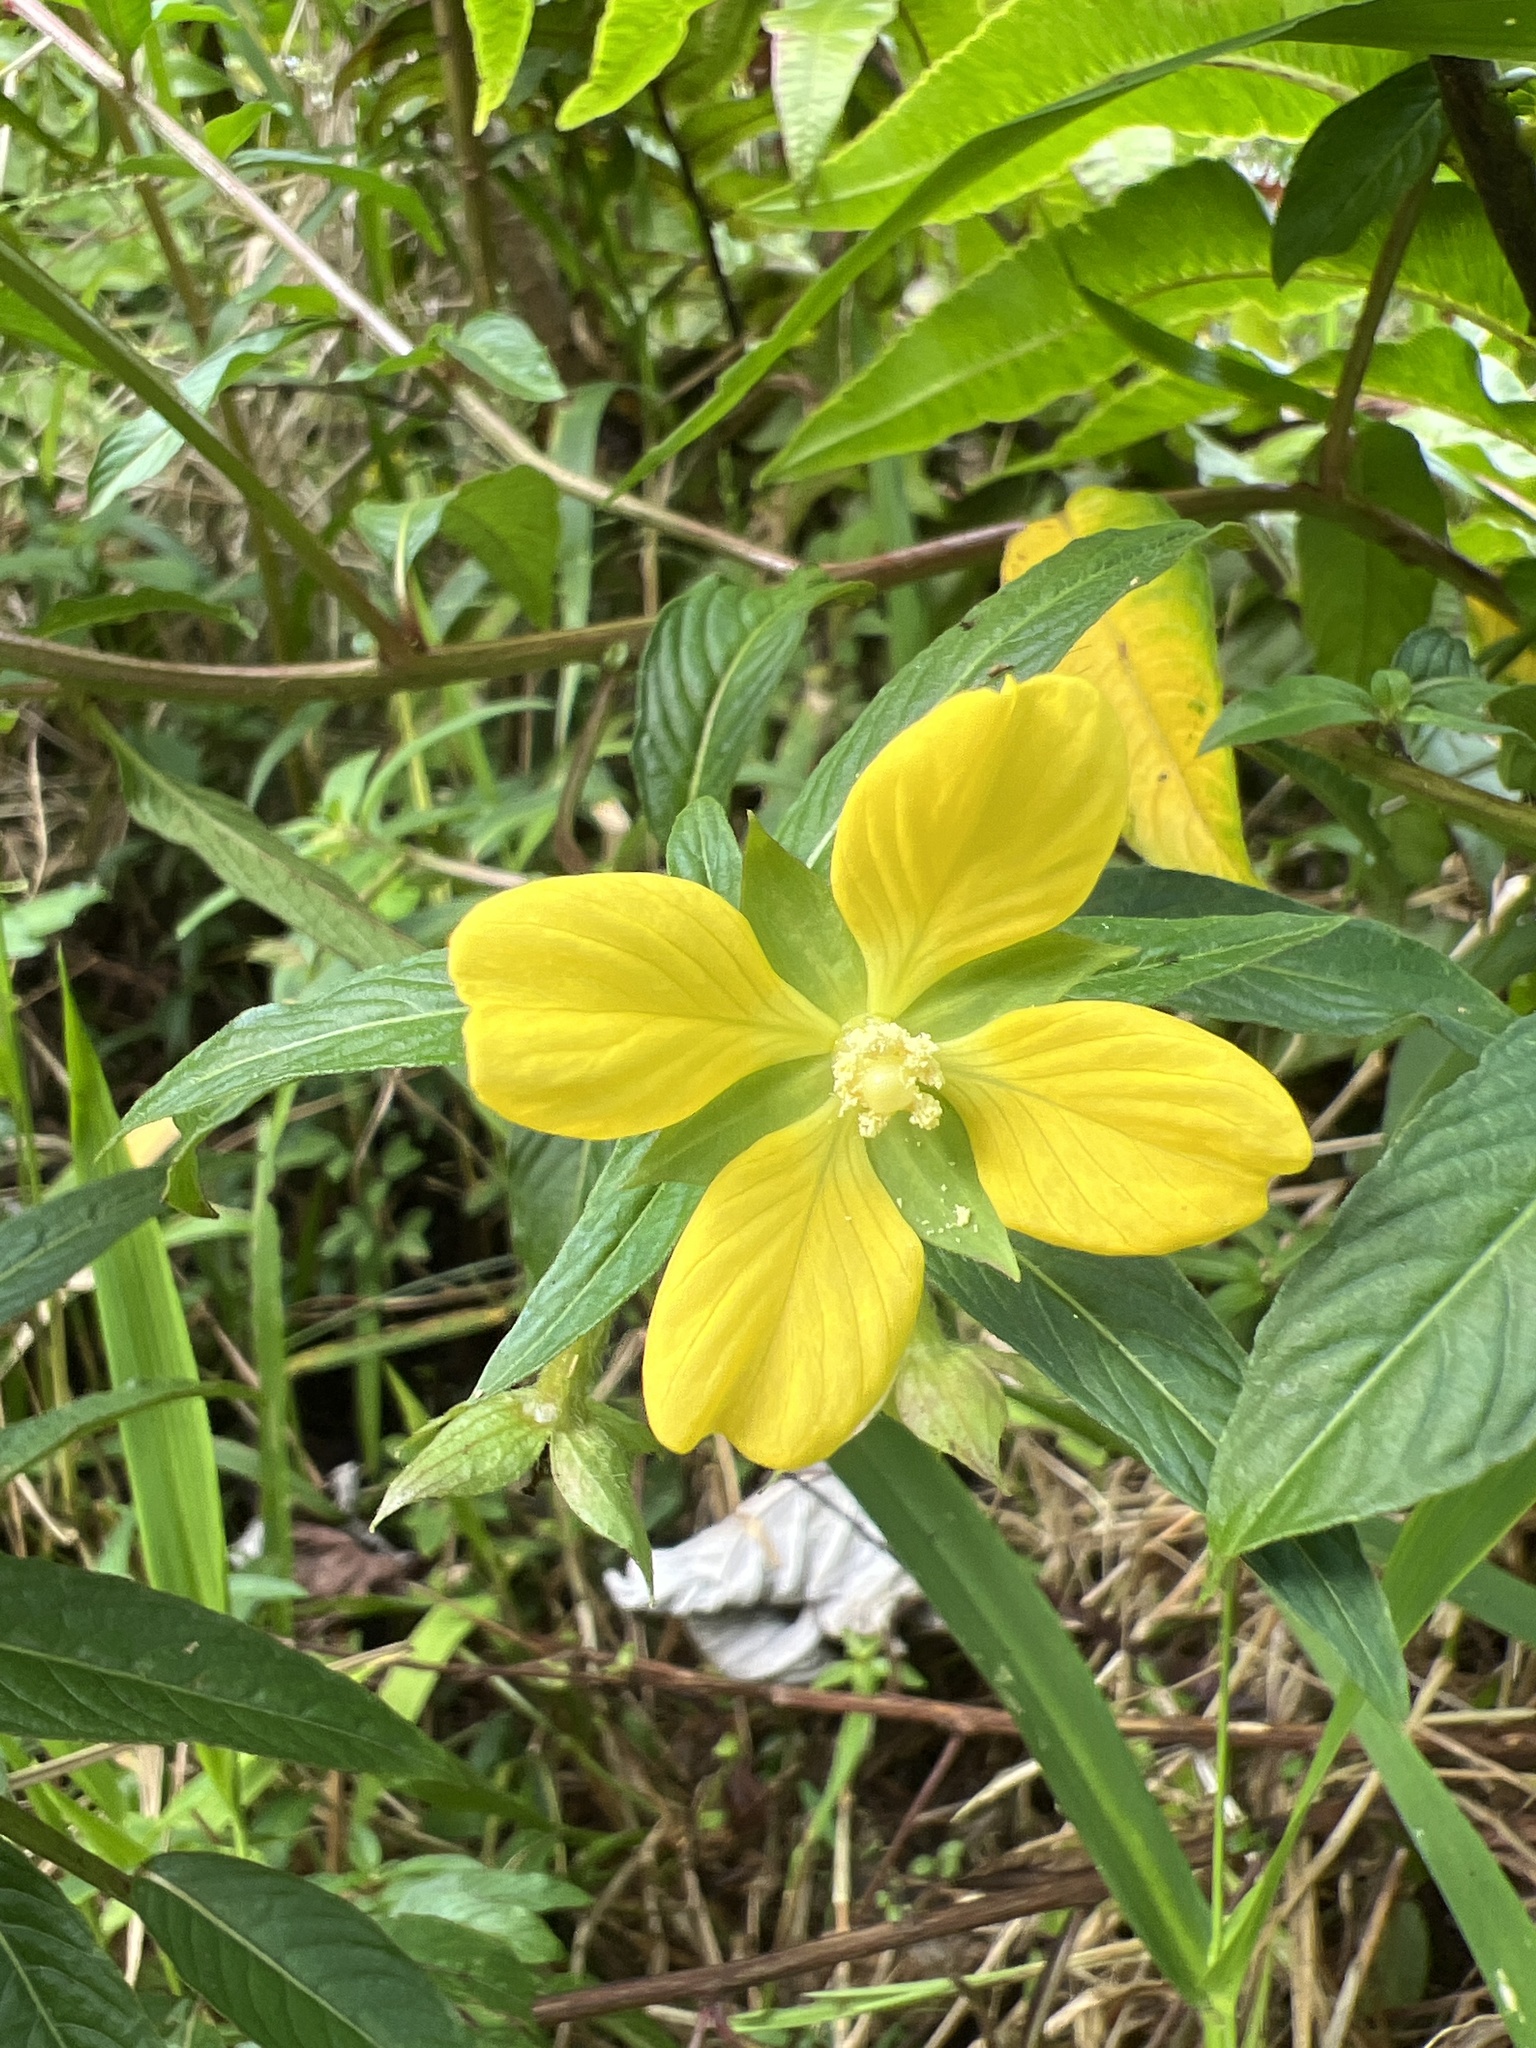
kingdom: Plantae
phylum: Tracheophyta
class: Magnoliopsida
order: Myrtales
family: Onagraceae
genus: Ludwigia
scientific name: Ludwigia octovalvis
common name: Water-primrose
